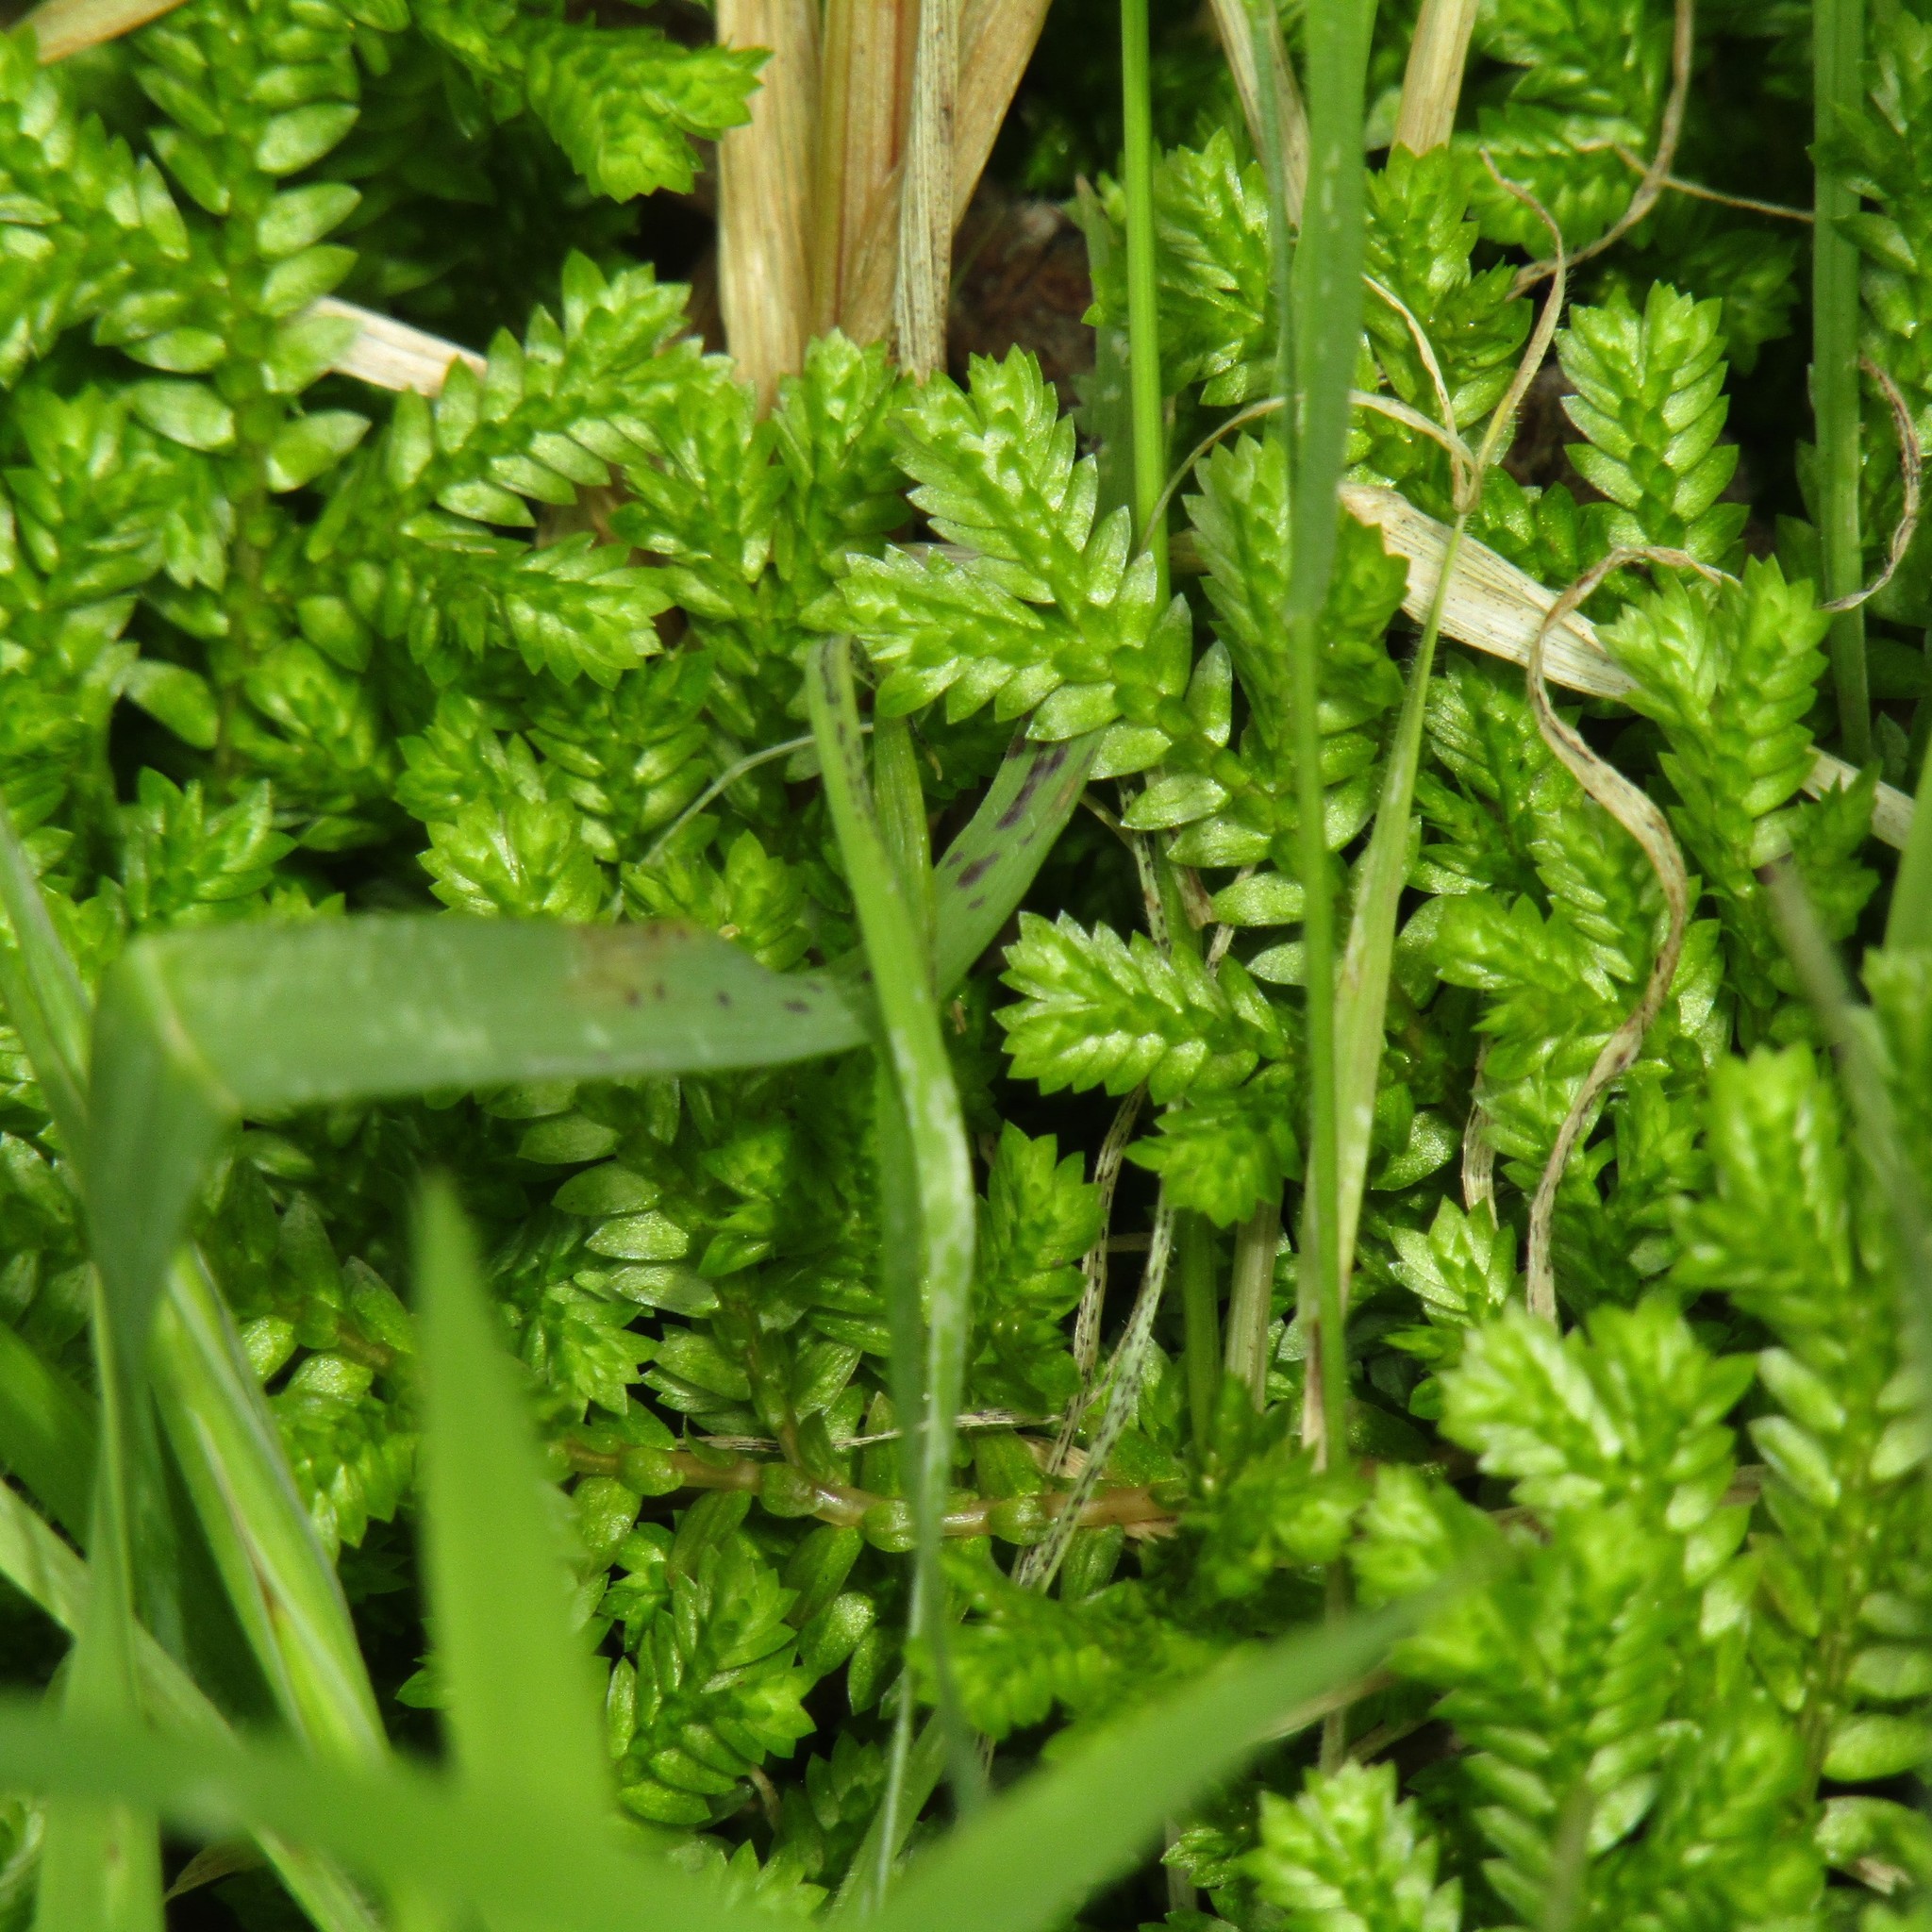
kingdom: Plantae
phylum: Tracheophyta
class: Lycopodiopsida
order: Selaginellales
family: Selaginellaceae
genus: Selaginella
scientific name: Selaginella kraussiana
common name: Krauss' spikemoss
